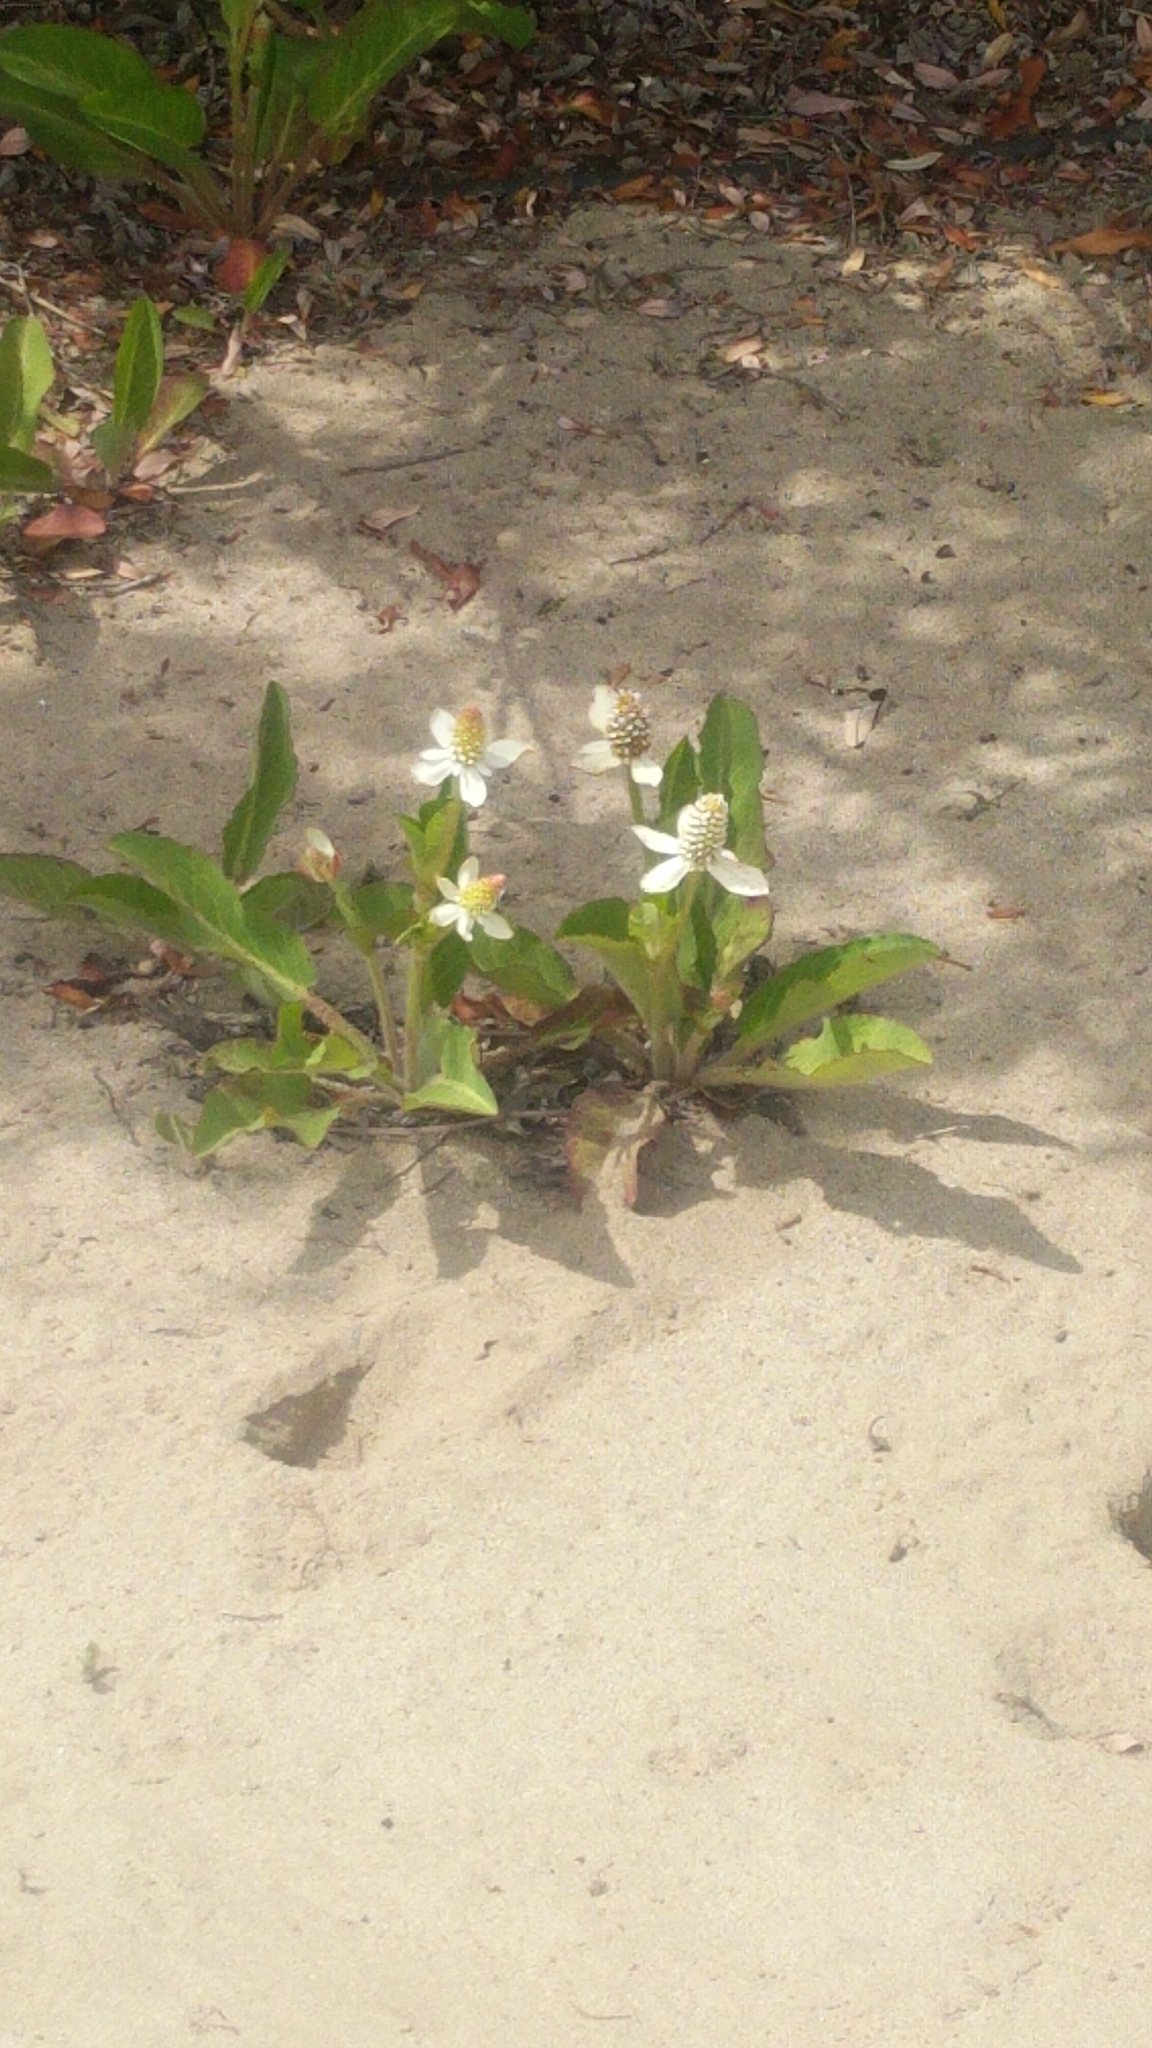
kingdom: Plantae
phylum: Tracheophyta
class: Magnoliopsida
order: Piperales
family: Saururaceae
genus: Anemopsis
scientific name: Anemopsis californica
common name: Apache-beads
